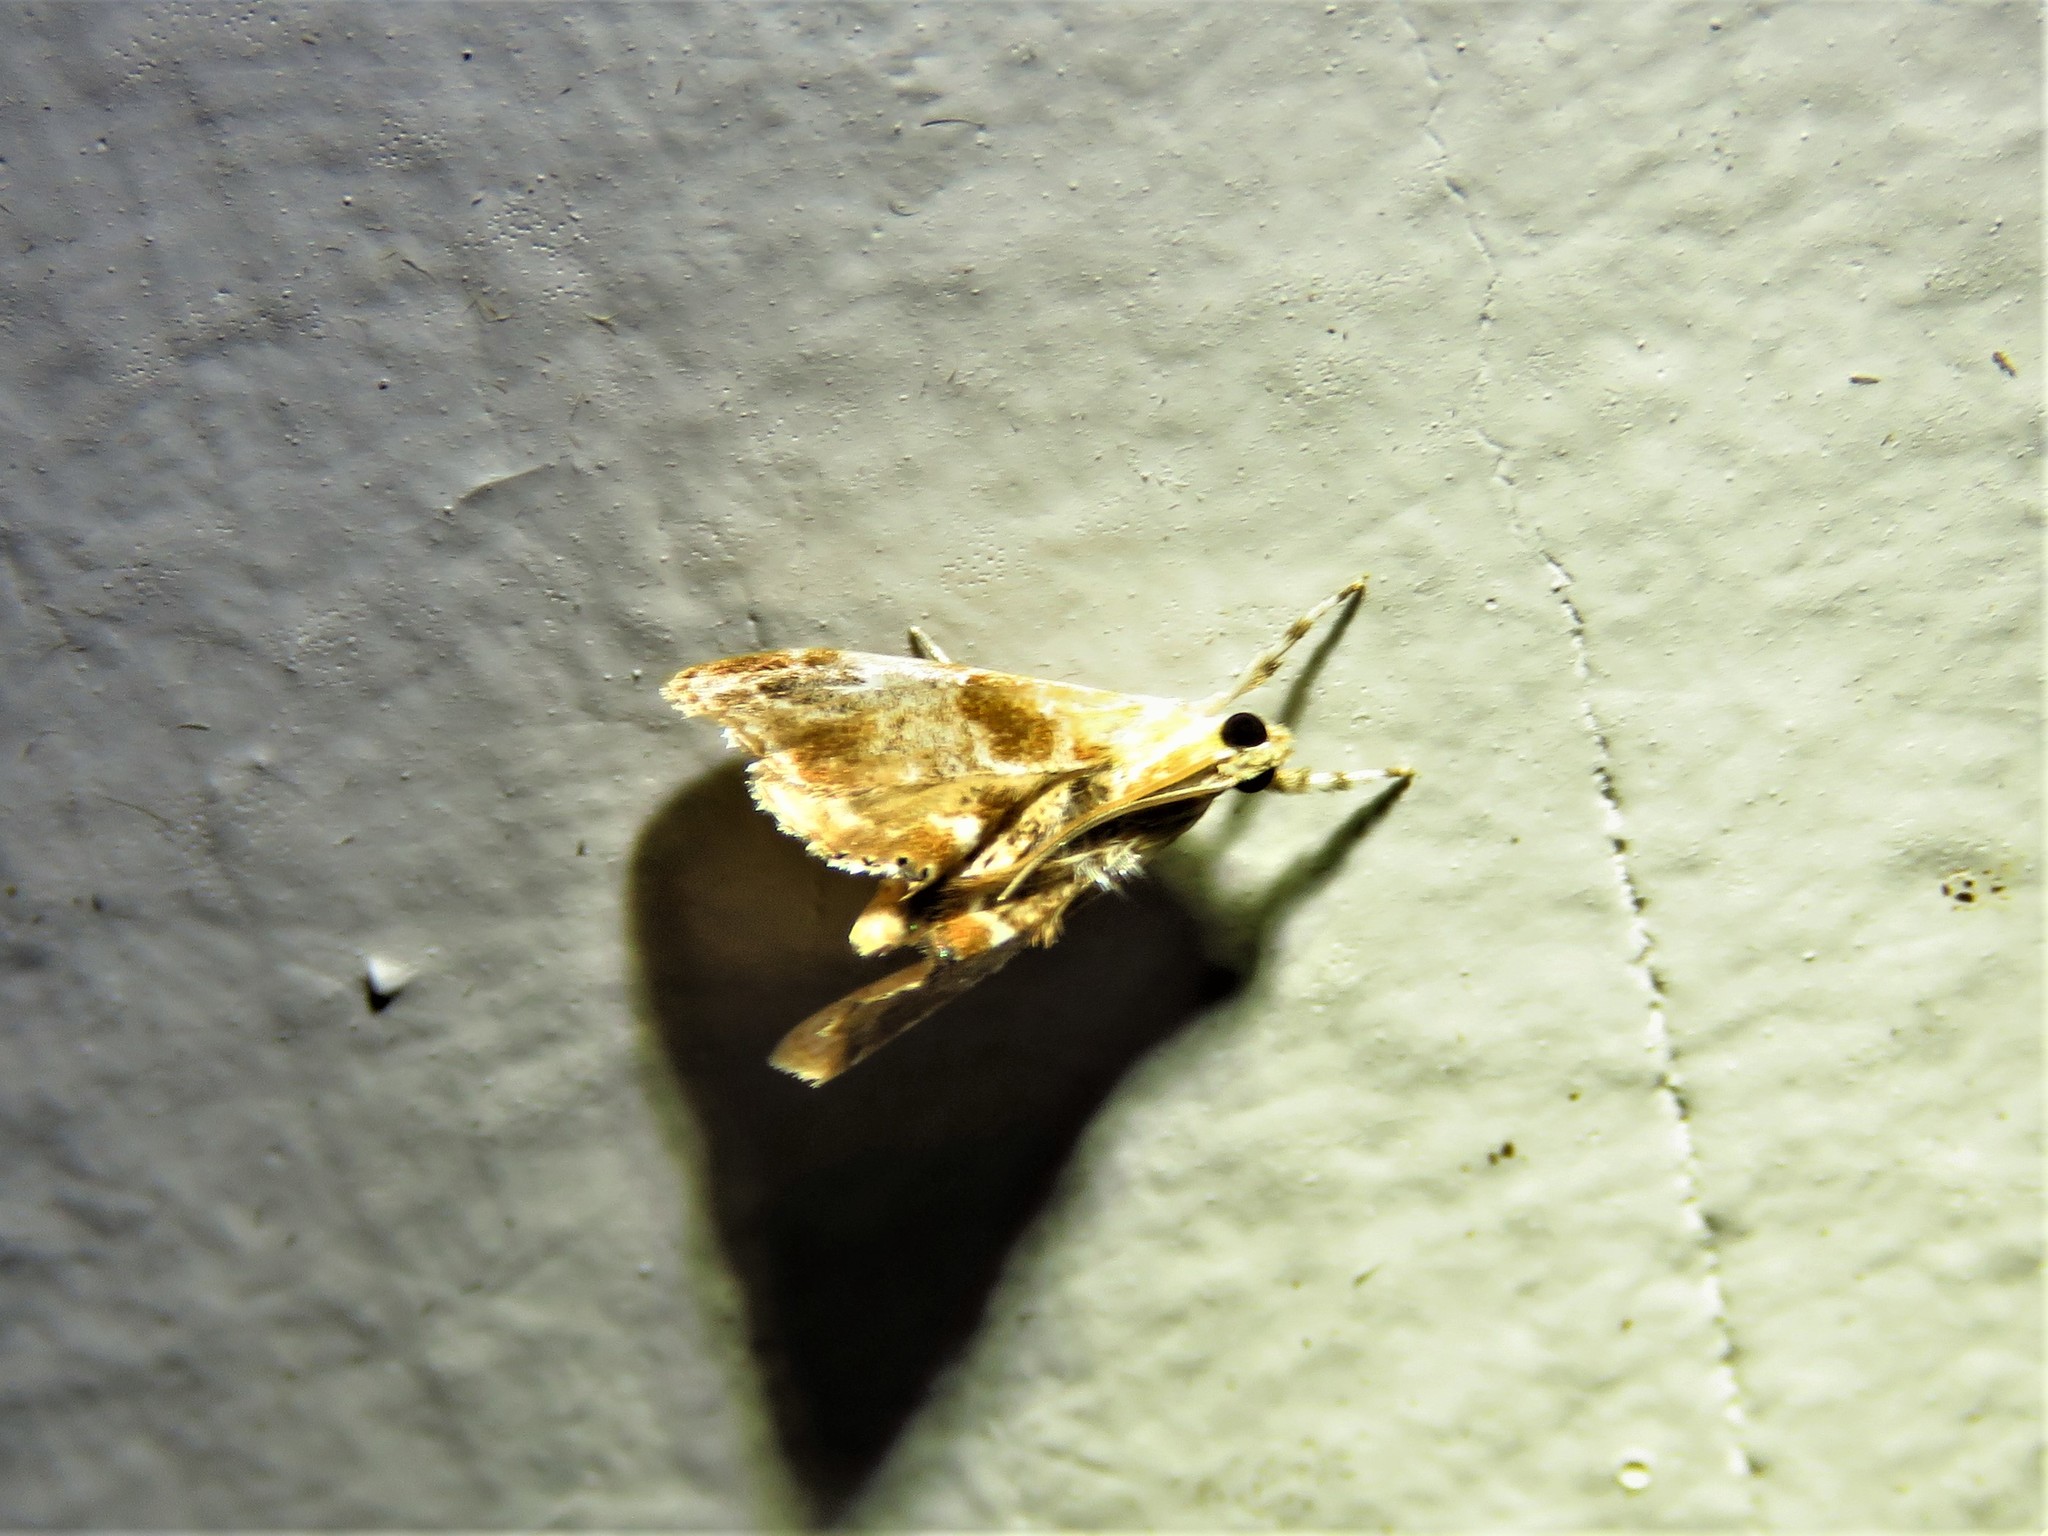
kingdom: Animalia
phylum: Arthropoda
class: Insecta
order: Lepidoptera
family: Crambidae
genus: Dicymolomia
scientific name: Dicymolomia julianalis
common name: Julia's dicymolomia moth
